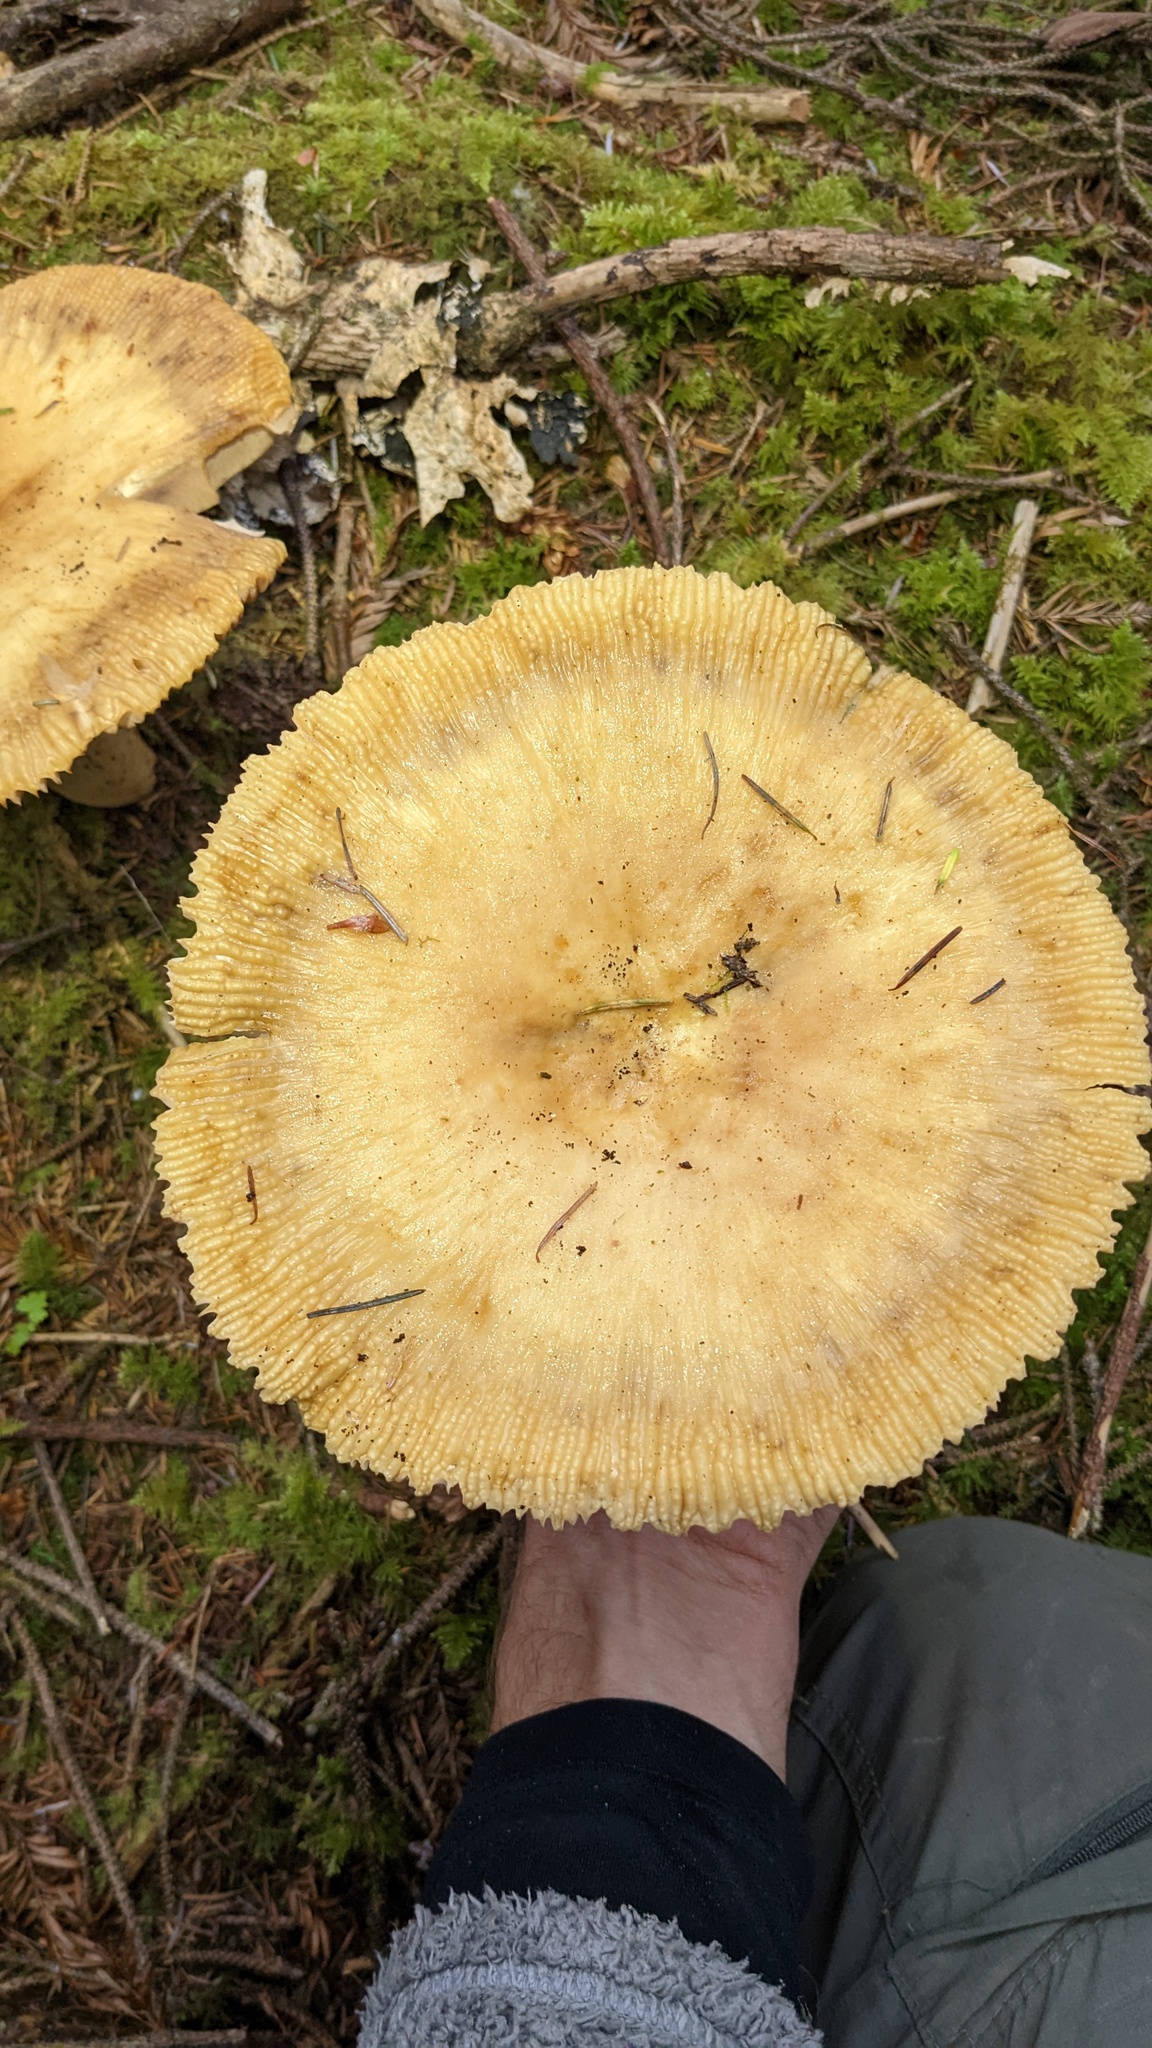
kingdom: Fungi
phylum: Basidiomycota
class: Agaricomycetes
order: Russulales
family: Russulaceae
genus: Russula
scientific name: Russula fragrantissima
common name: Almond-scented russula
